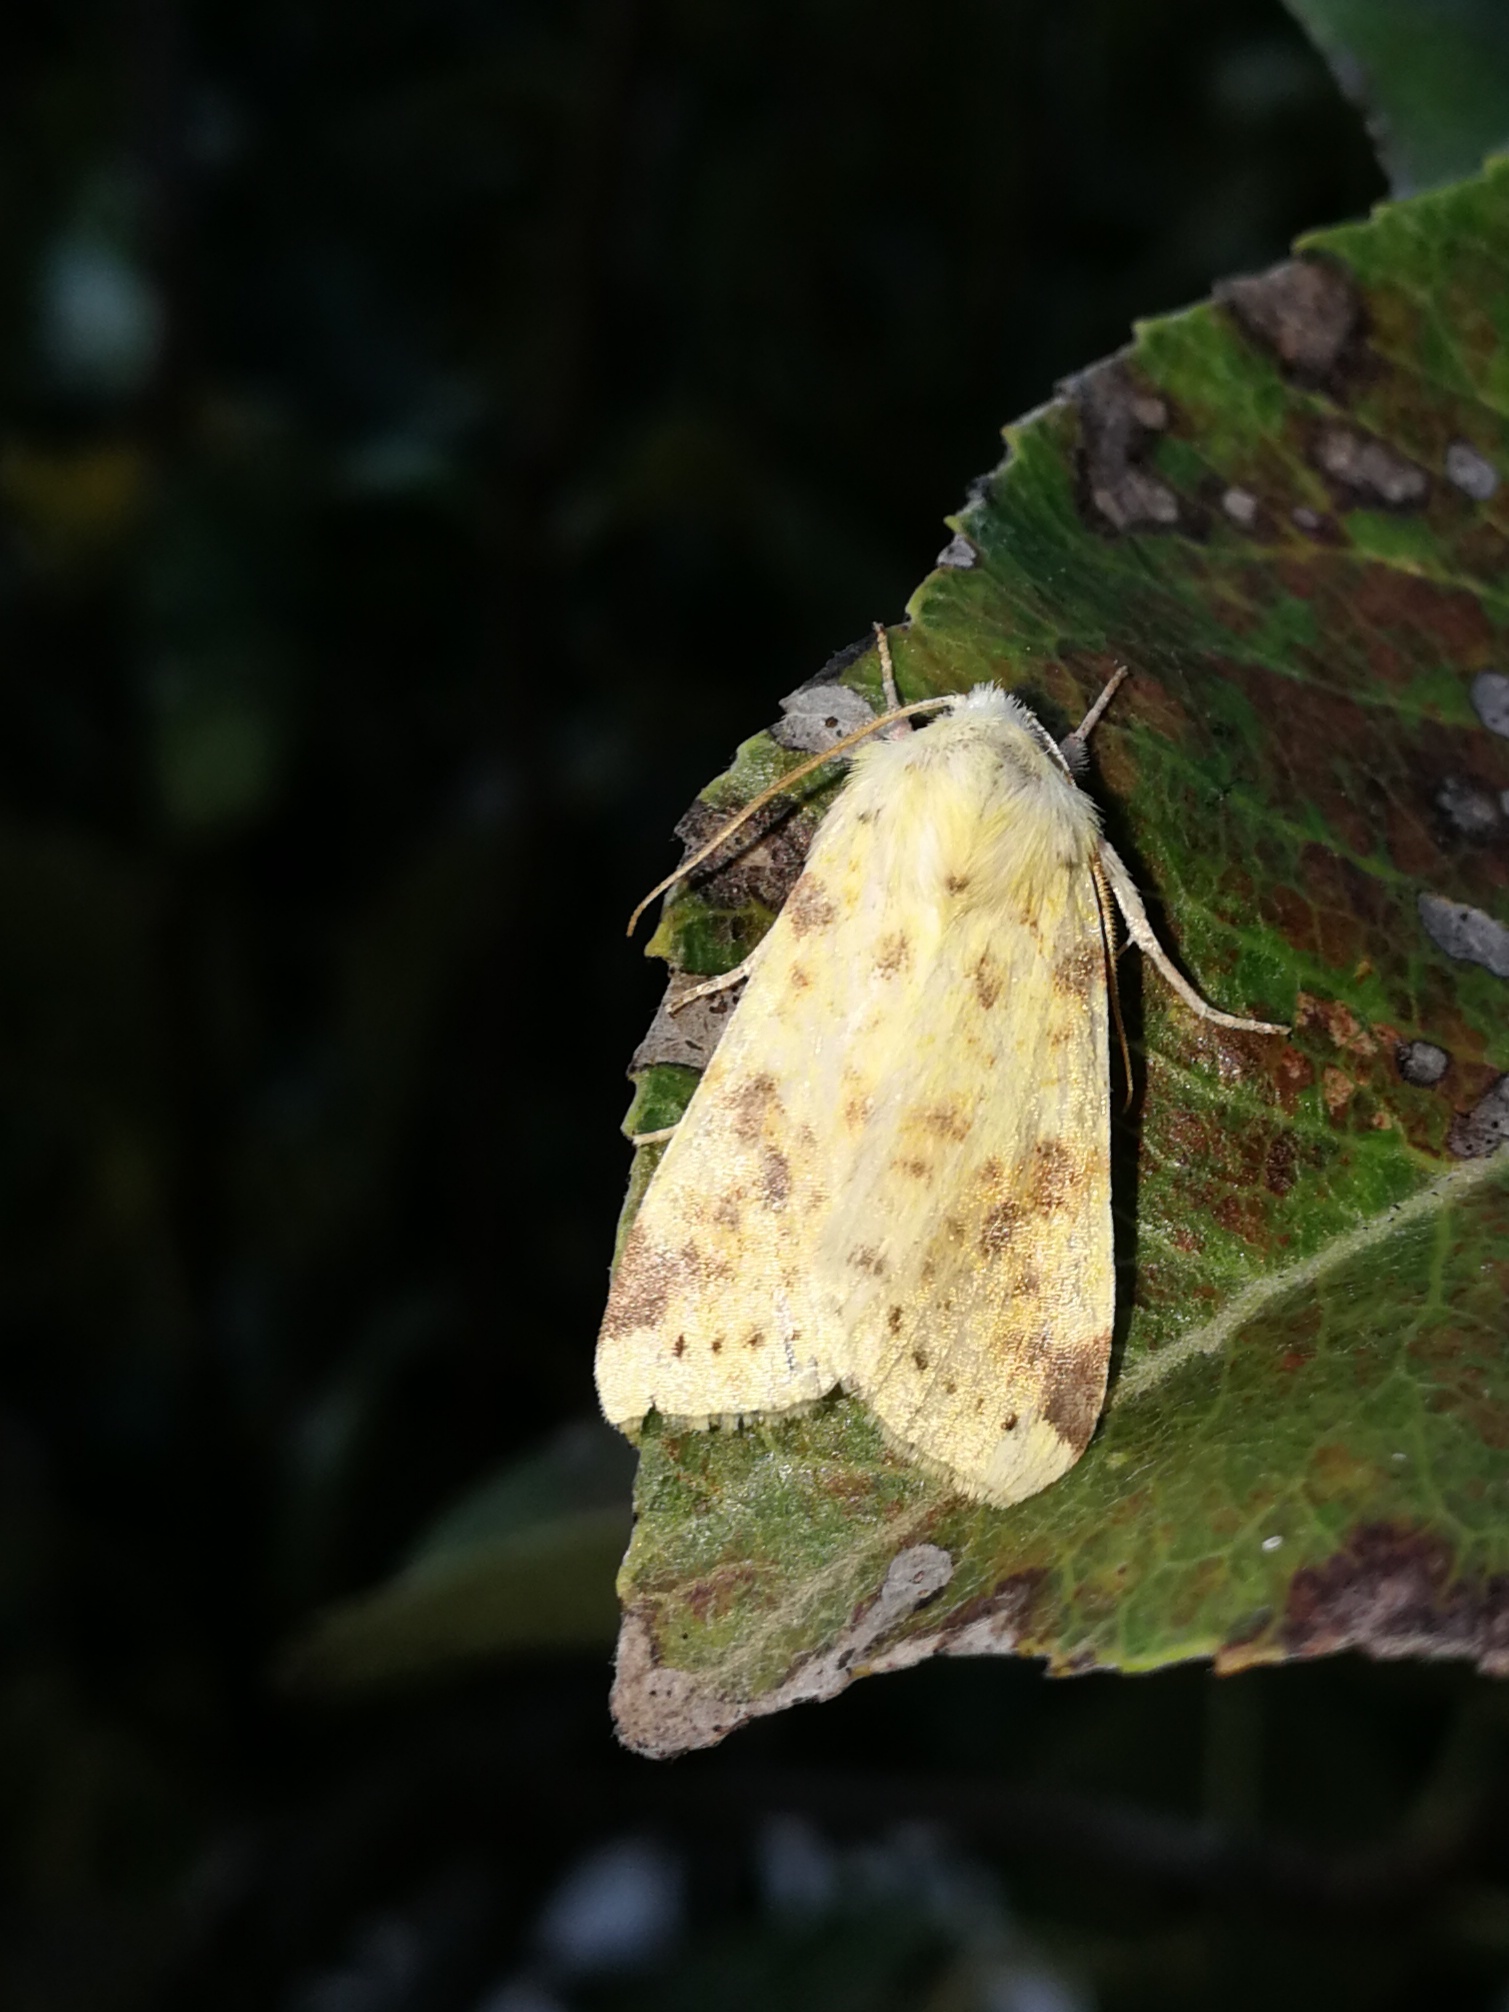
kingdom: Animalia
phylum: Arthropoda
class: Insecta
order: Lepidoptera
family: Noctuidae
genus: Xanthia
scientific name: Xanthia icteritia
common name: The sallow
